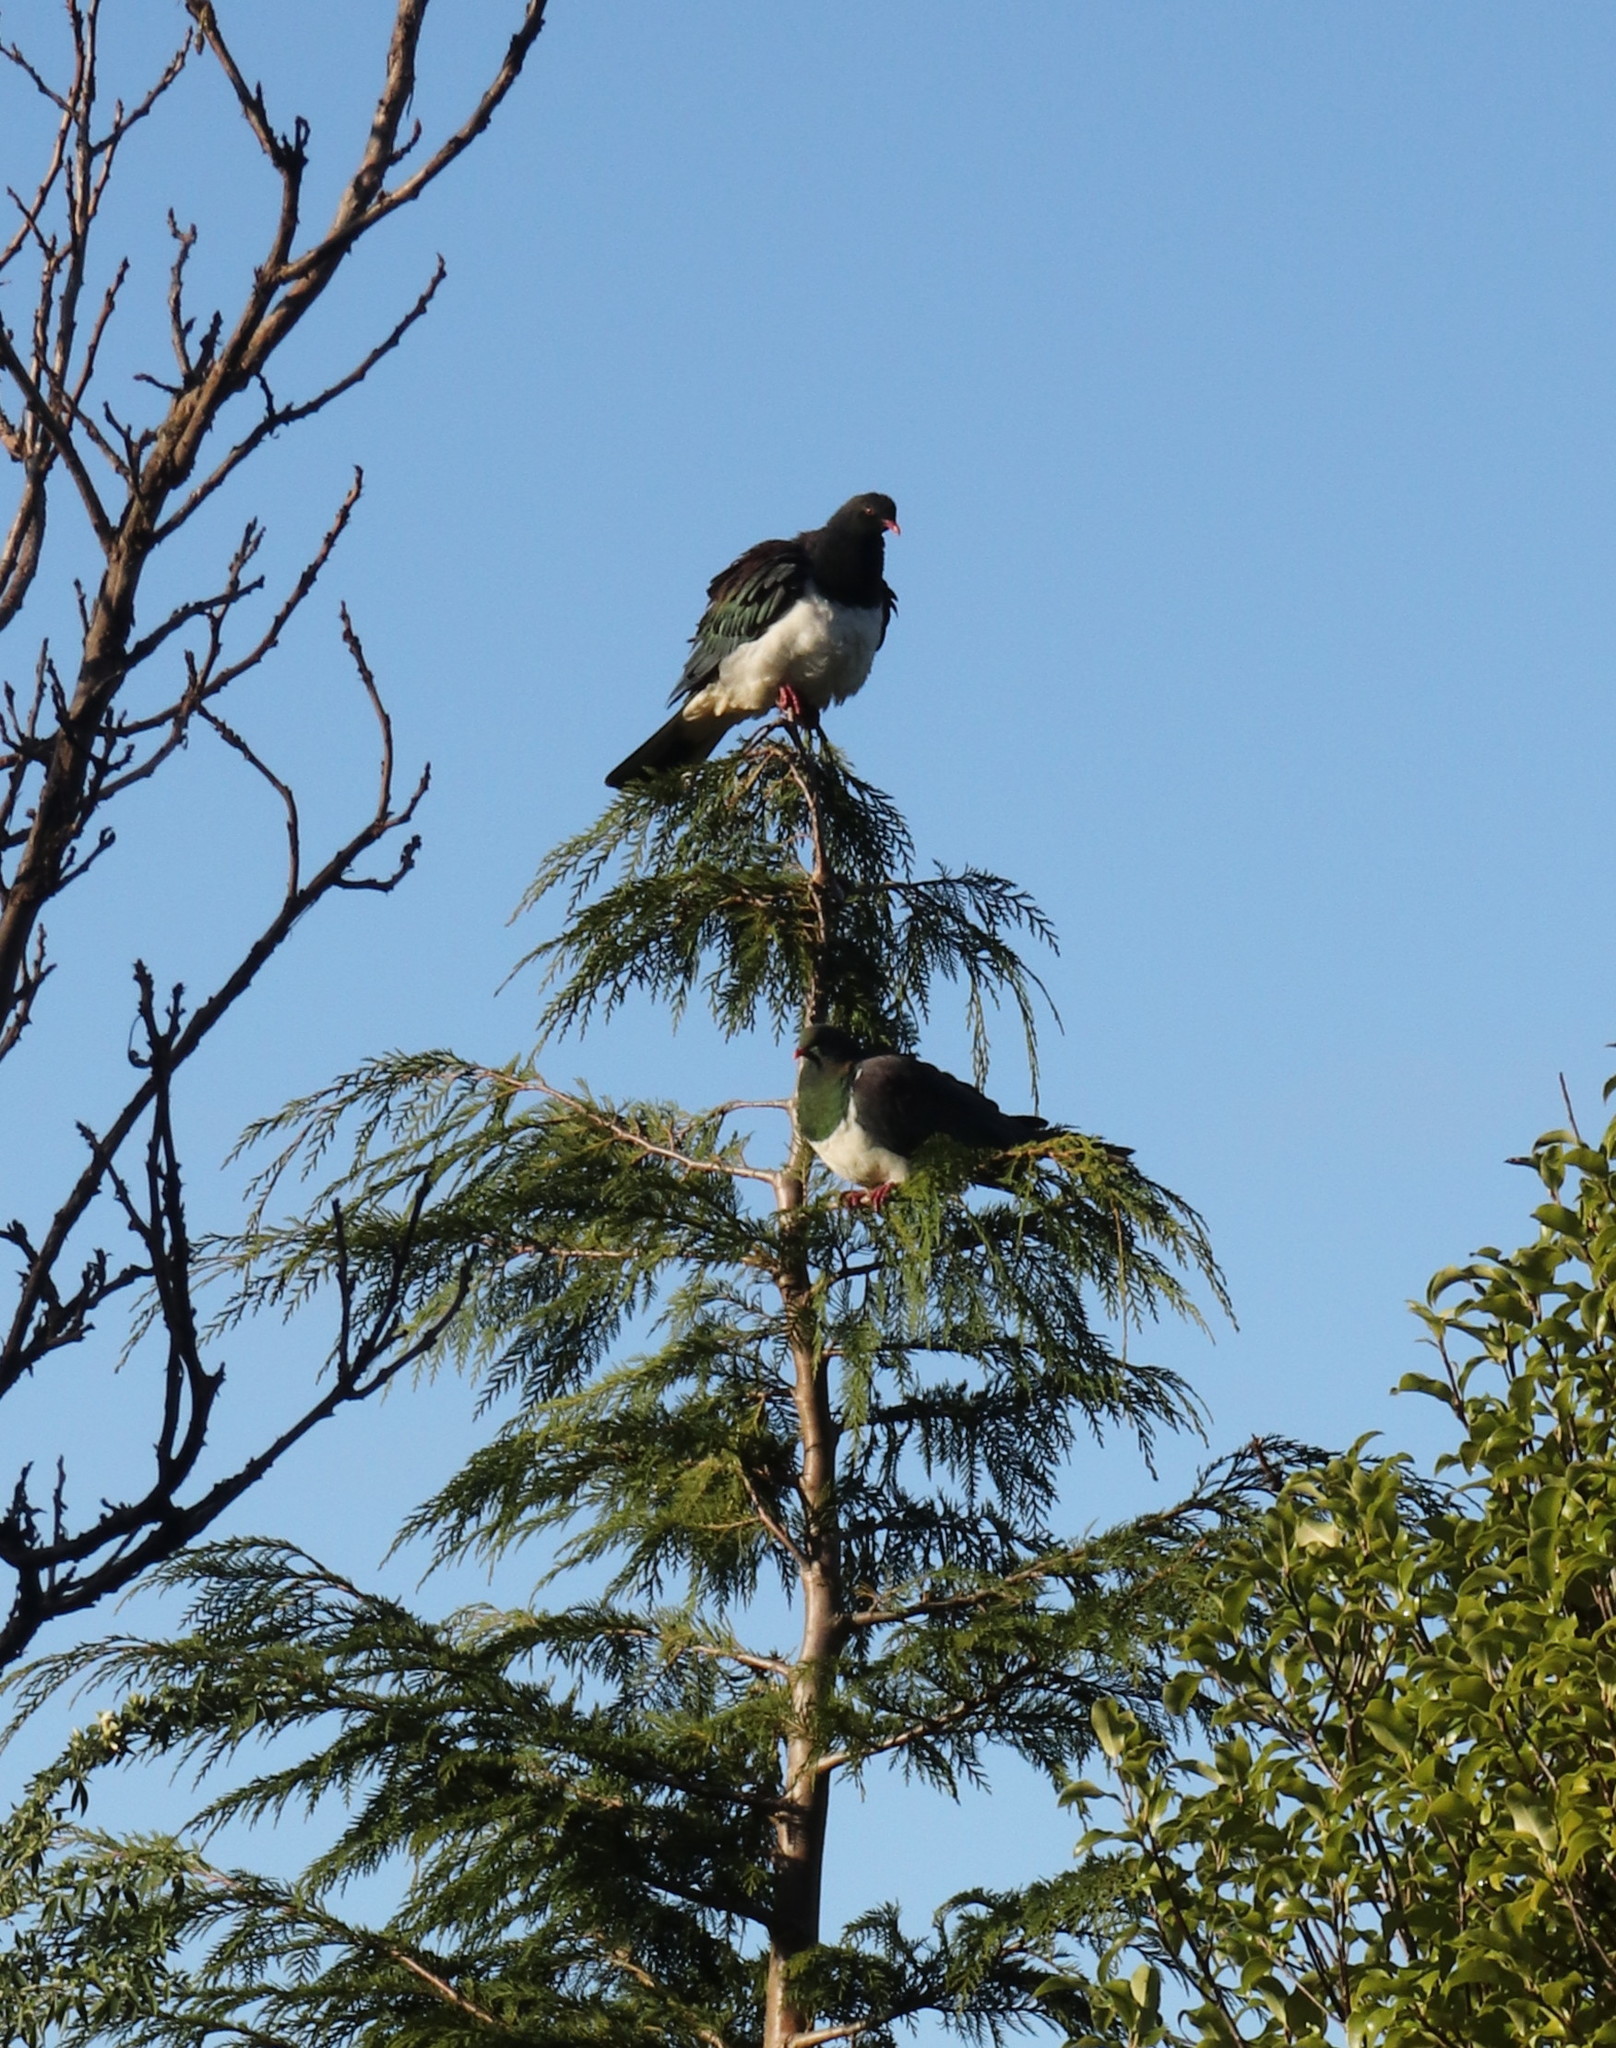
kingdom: Animalia
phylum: Chordata
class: Aves
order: Columbiformes
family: Columbidae
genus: Hemiphaga
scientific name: Hemiphaga novaeseelandiae
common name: New zealand pigeon
